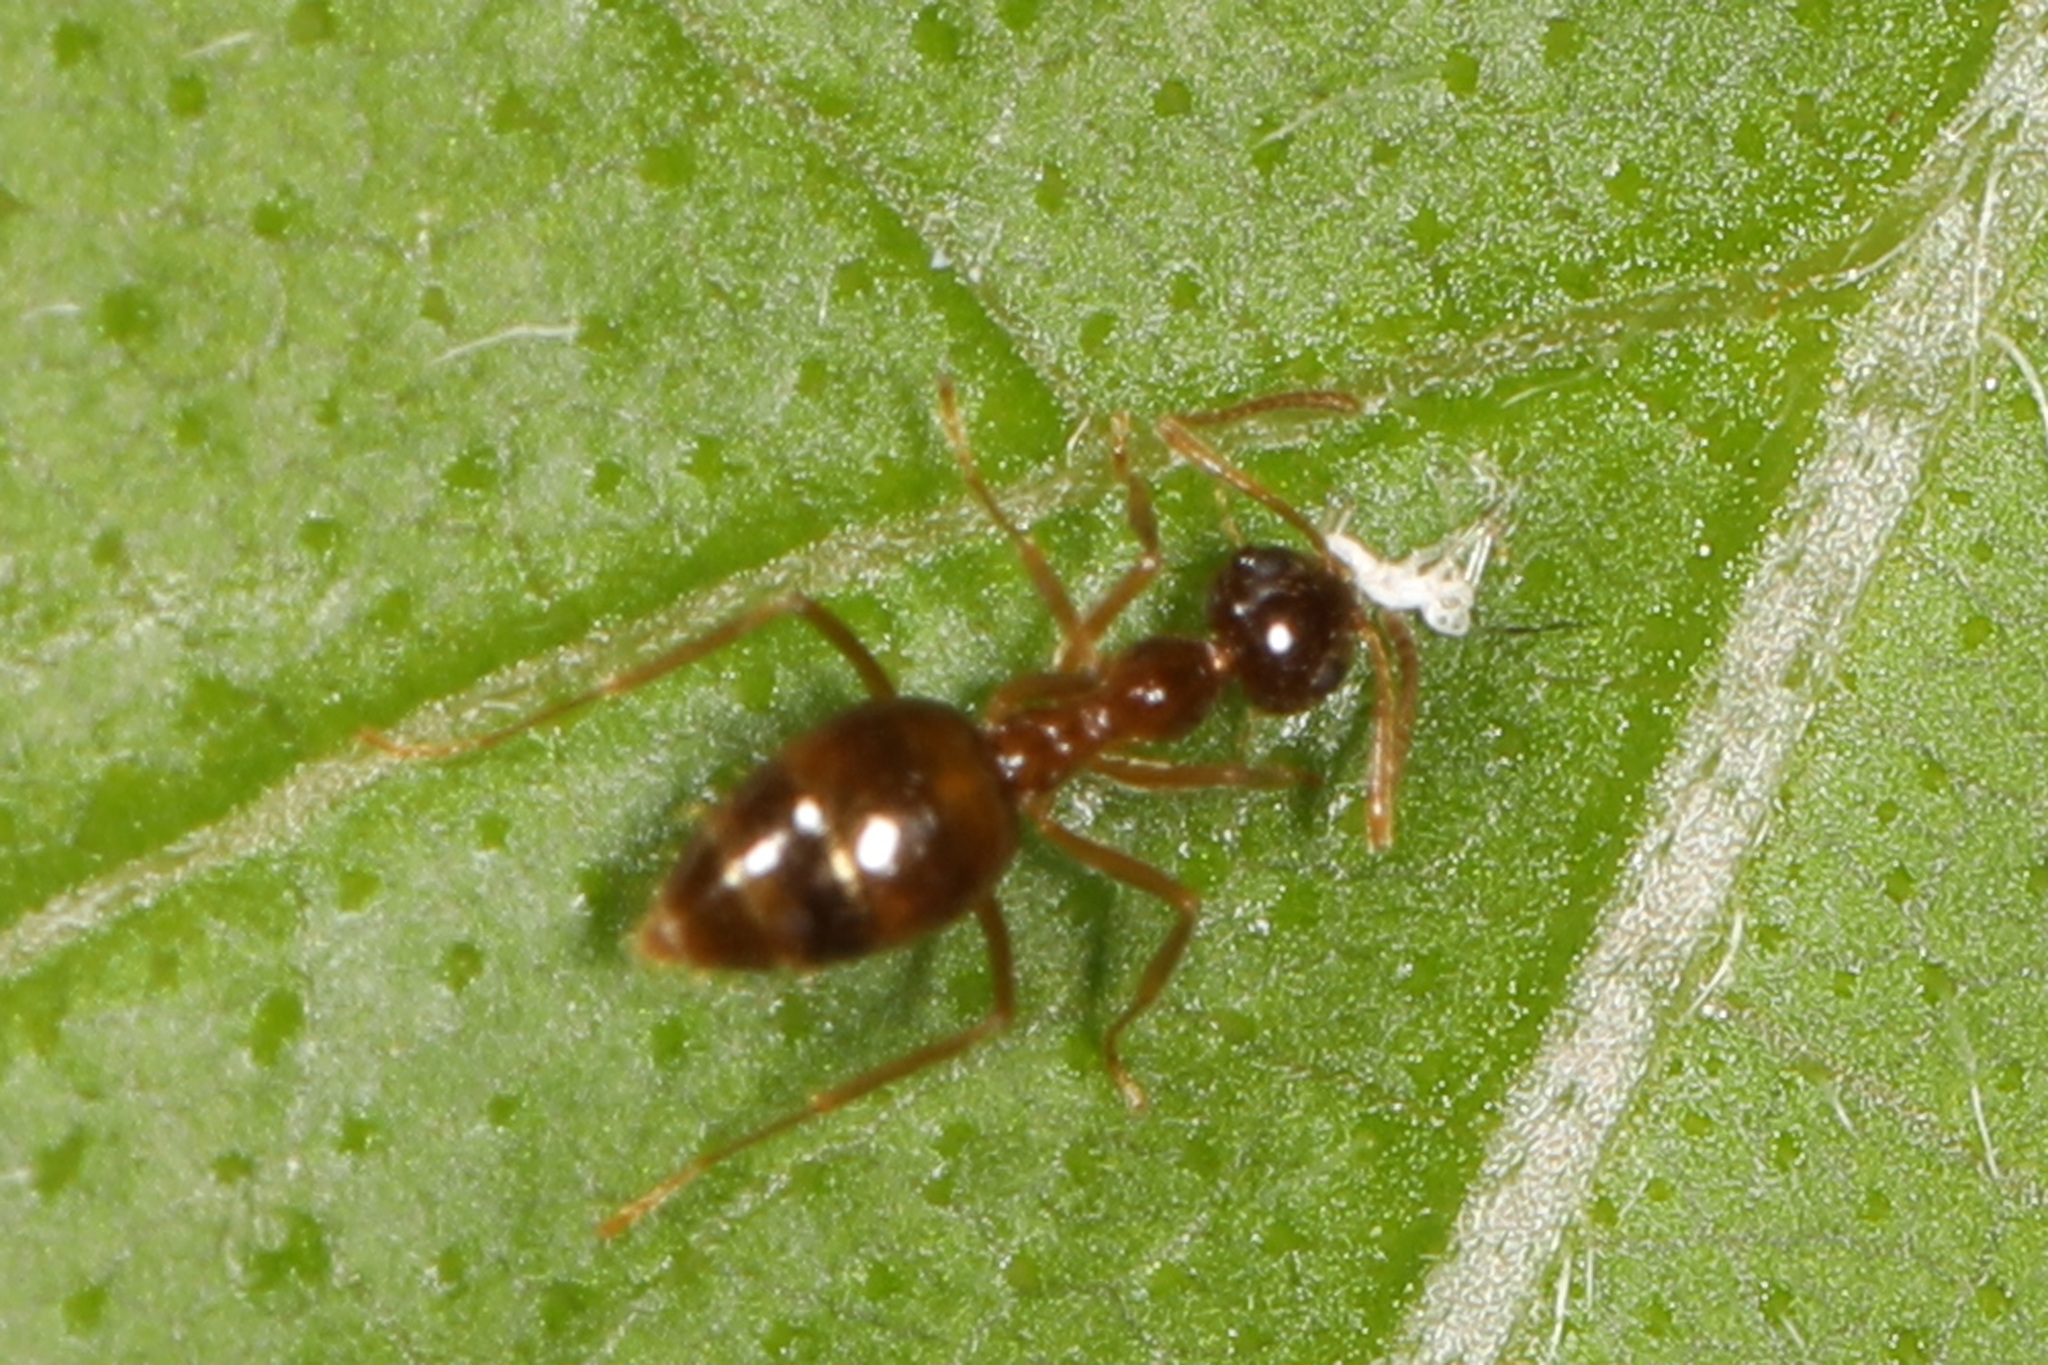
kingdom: Animalia
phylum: Arthropoda
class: Insecta
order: Hymenoptera
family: Formicidae
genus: Prenolepis
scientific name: Prenolepis imparis
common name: Small honey ant
